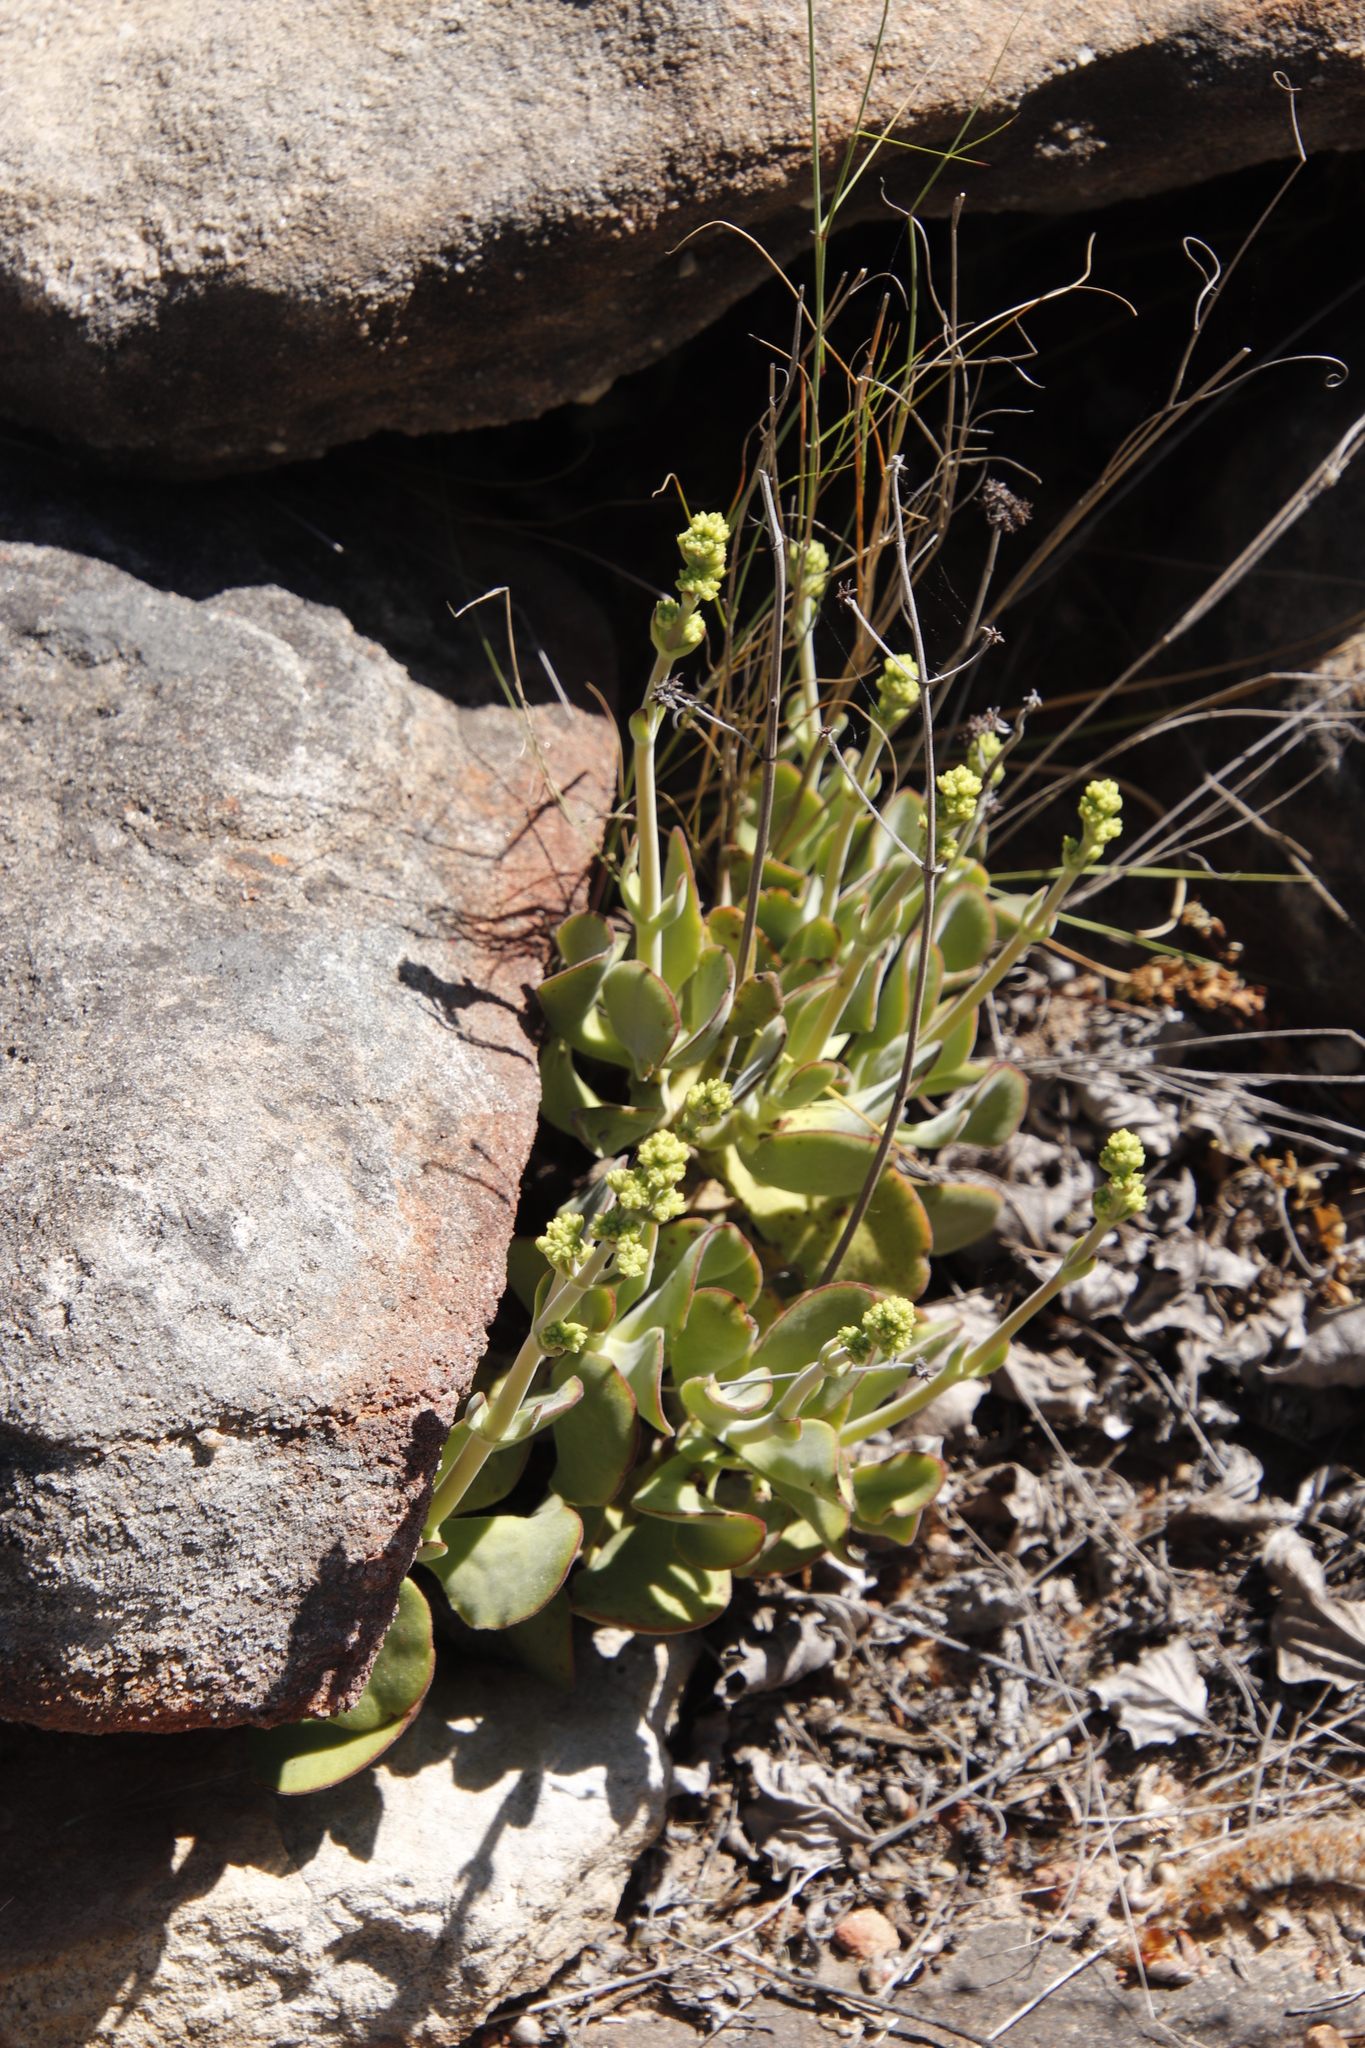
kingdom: Plantae
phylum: Tracheophyta
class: Magnoliopsida
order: Saxifragales
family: Crassulaceae
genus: Crassula
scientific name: Crassula cotyledonis
